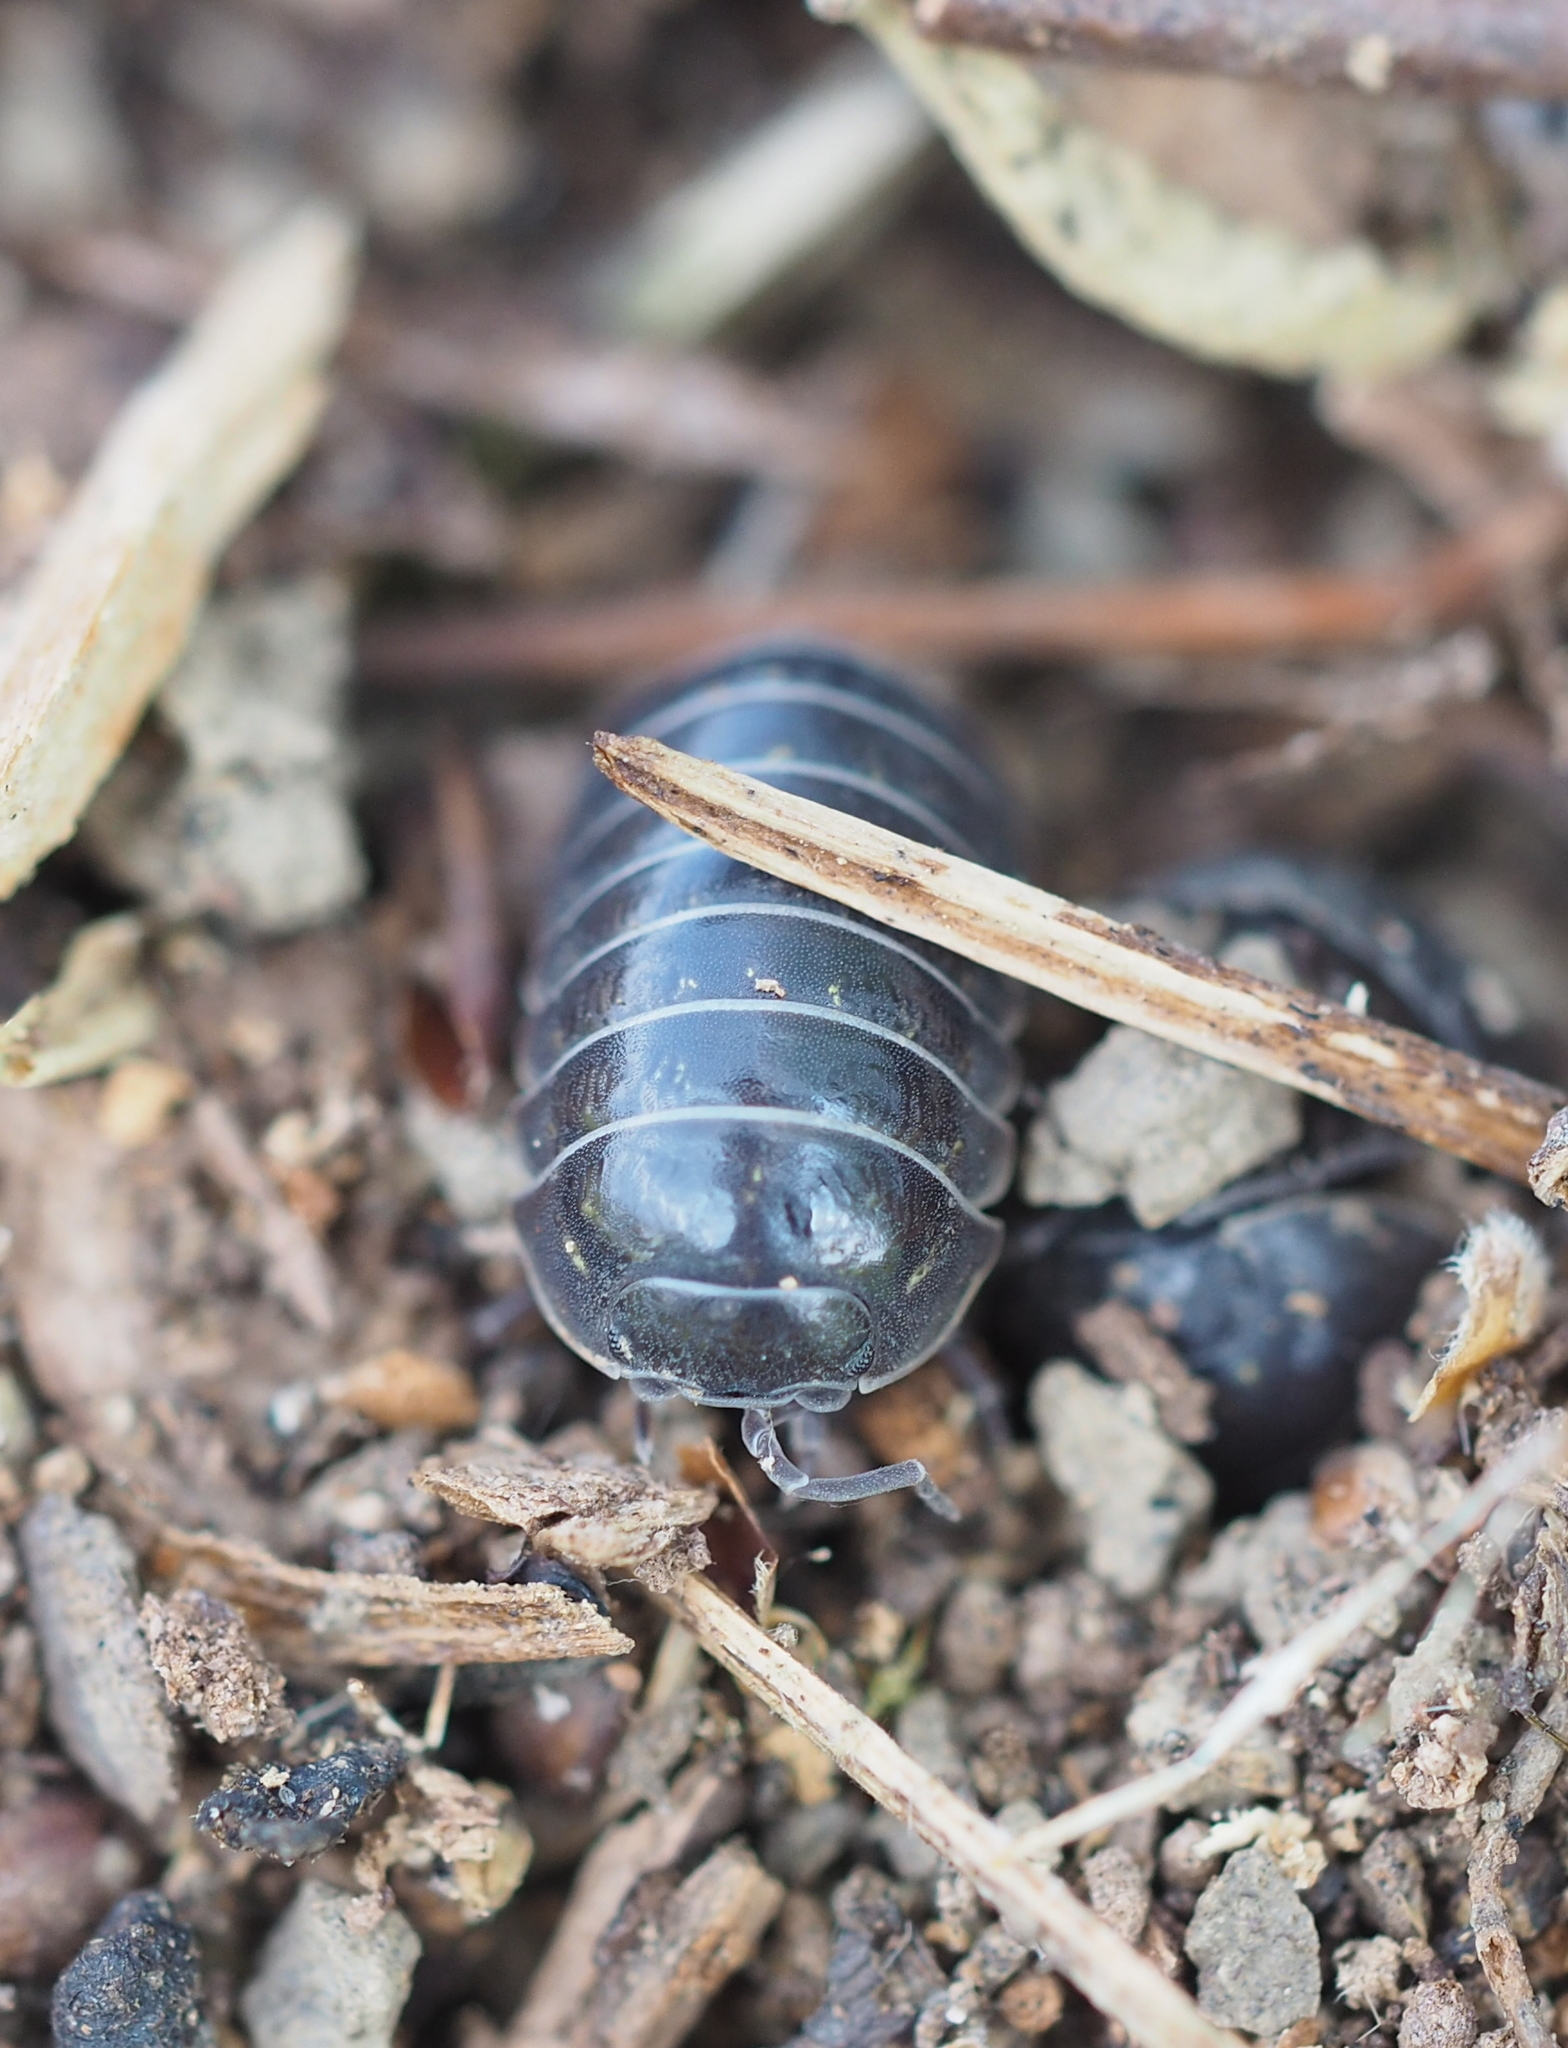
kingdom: Animalia
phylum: Arthropoda
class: Malacostraca
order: Isopoda
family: Armadillidiidae
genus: Armadillidium
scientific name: Armadillidium vulgare
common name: Common pill woodlouse
